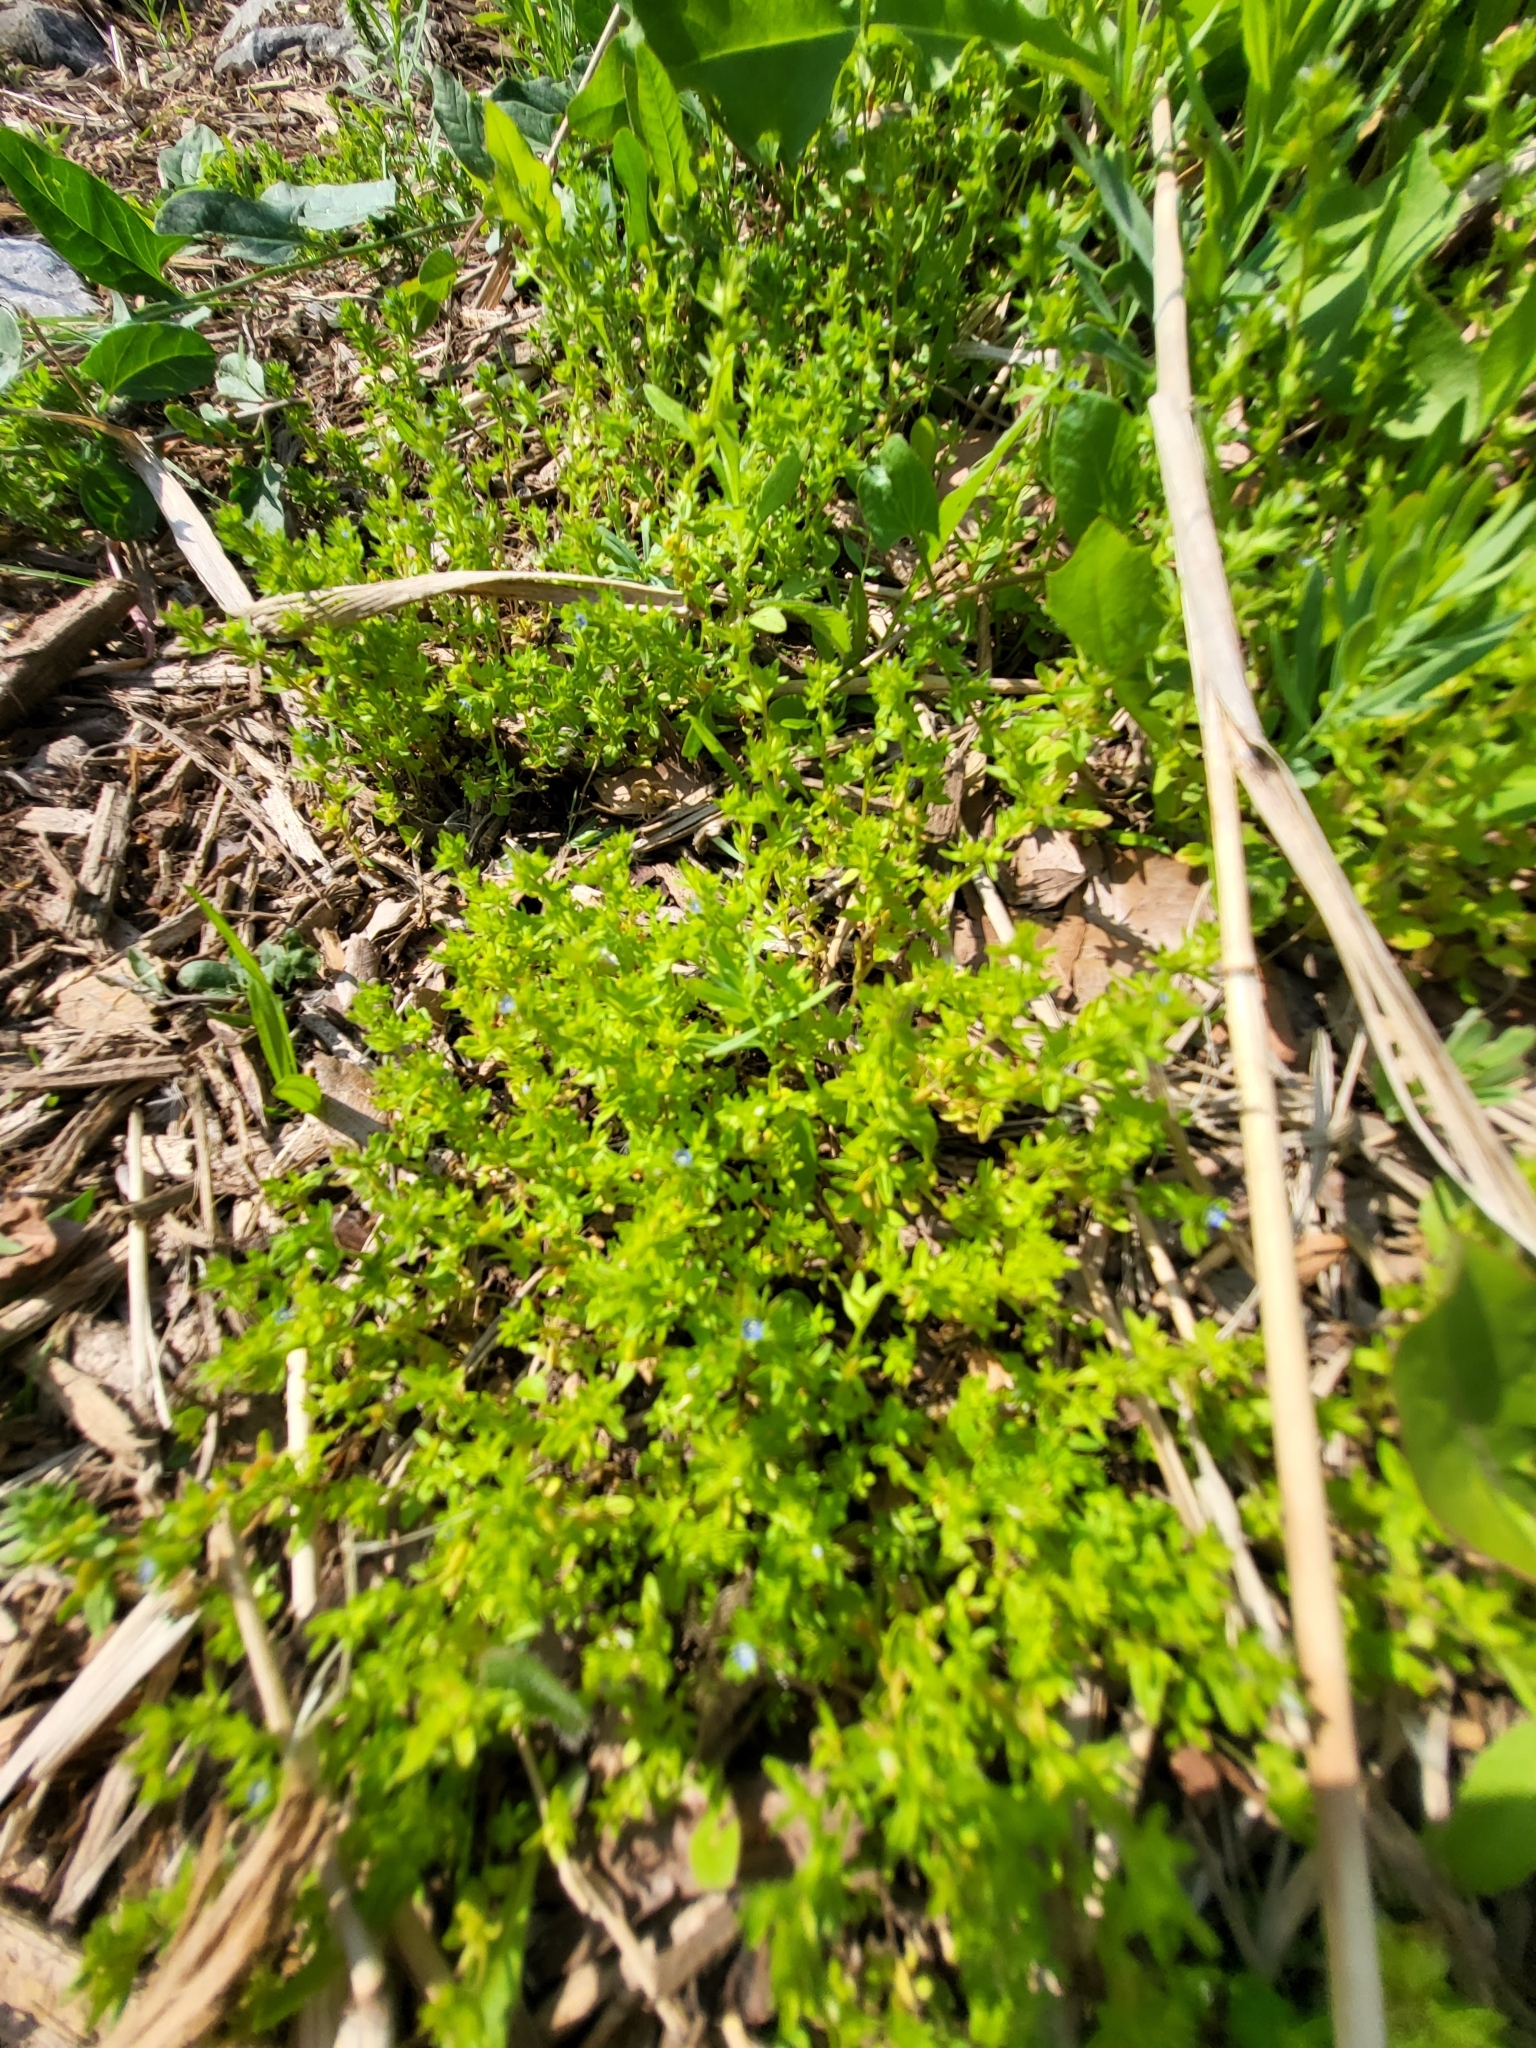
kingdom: Plantae
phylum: Tracheophyta
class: Magnoliopsida
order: Lamiales
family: Plantaginaceae
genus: Veronica
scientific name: Veronica arvensis
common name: Corn speedwell
